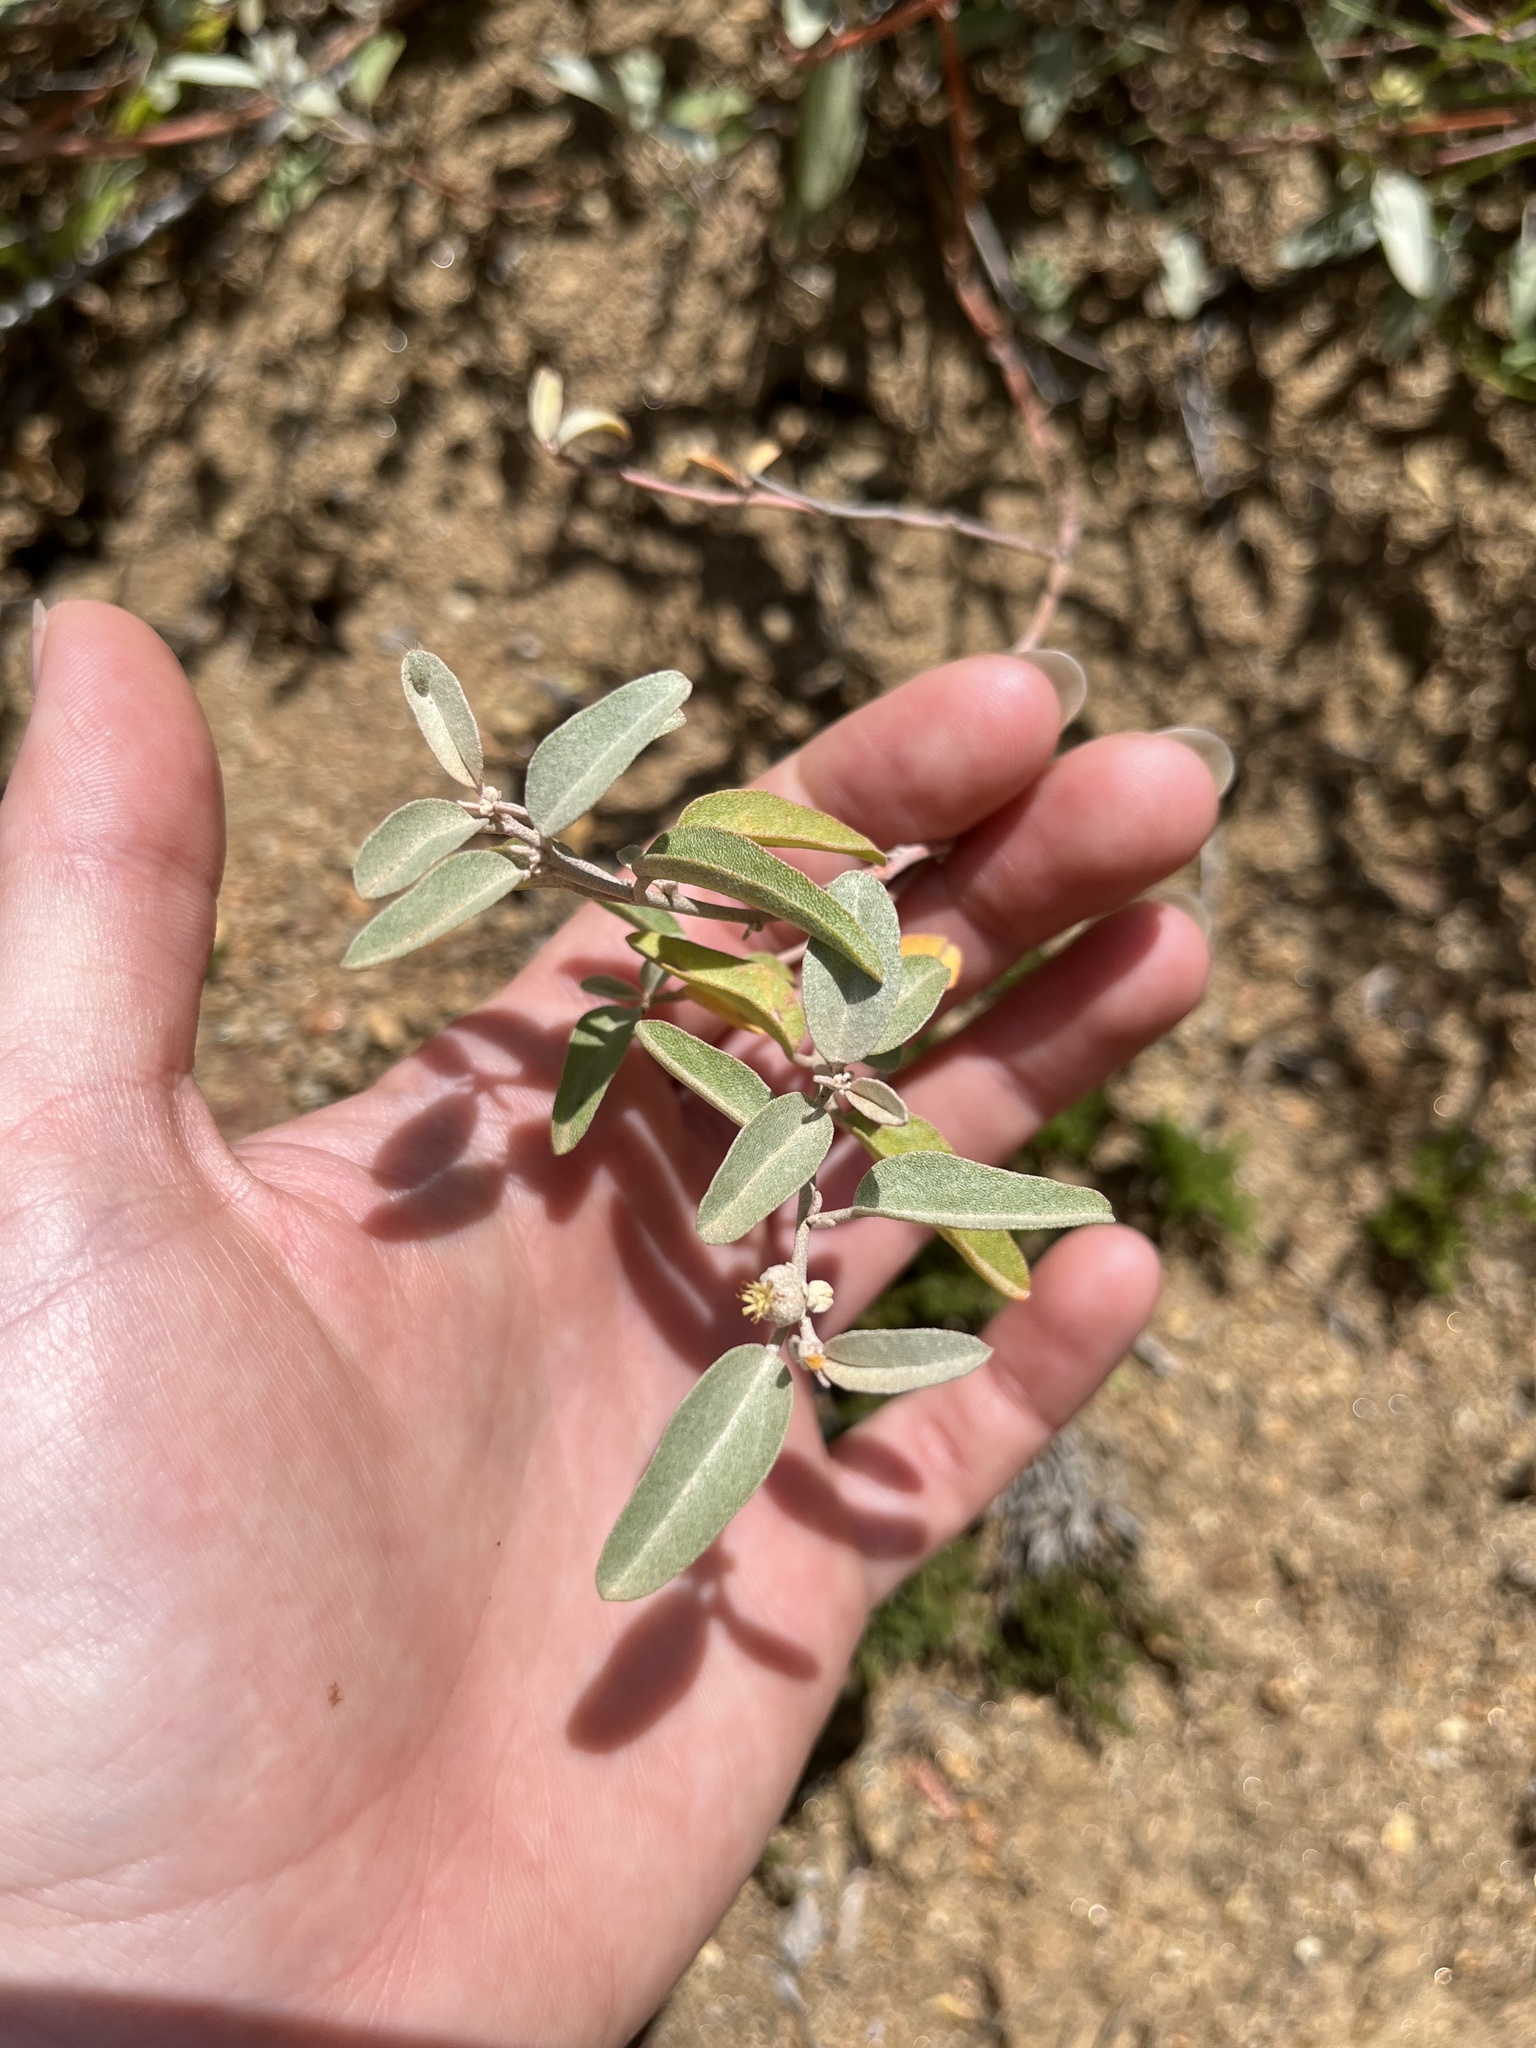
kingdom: Plantae
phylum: Tracheophyta
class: Magnoliopsida
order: Malpighiales
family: Euphorbiaceae
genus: Croton
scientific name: Croton californicus
